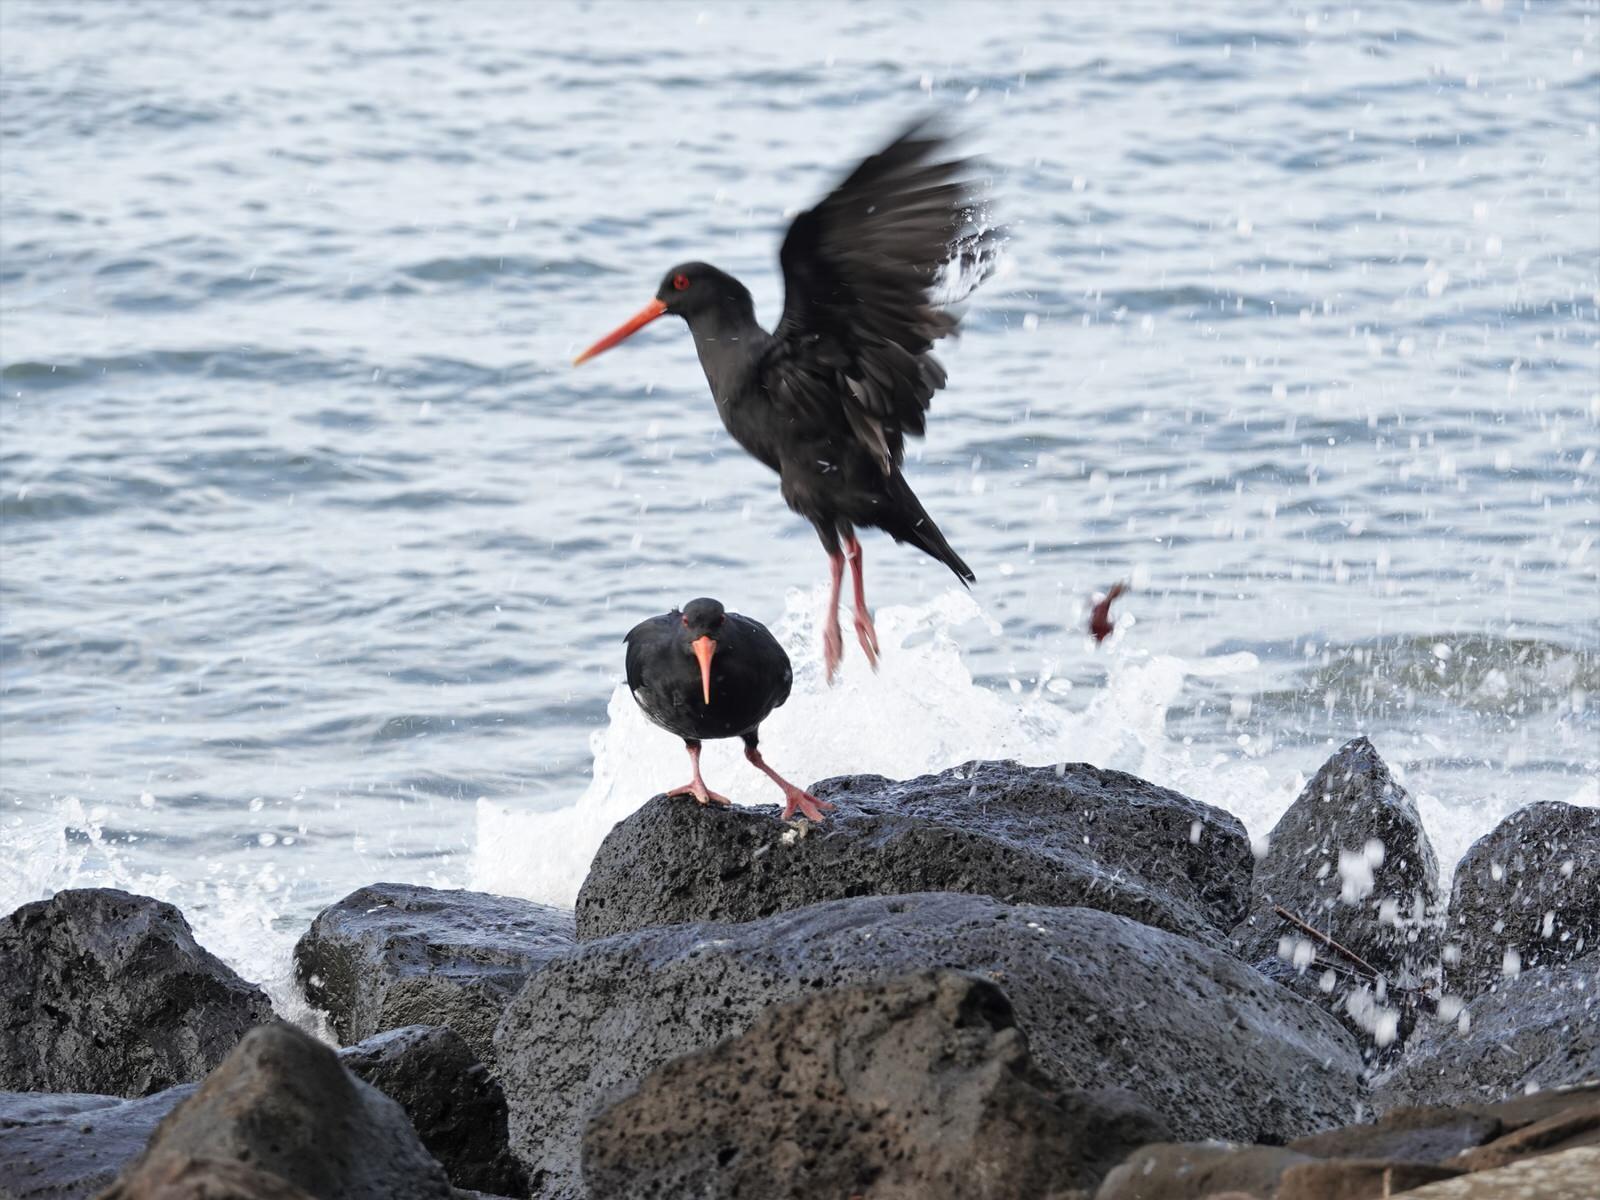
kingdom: Animalia
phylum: Chordata
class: Aves
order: Charadriiformes
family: Haematopodidae
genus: Haematopus
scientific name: Haematopus unicolor
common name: Variable oystercatcher
